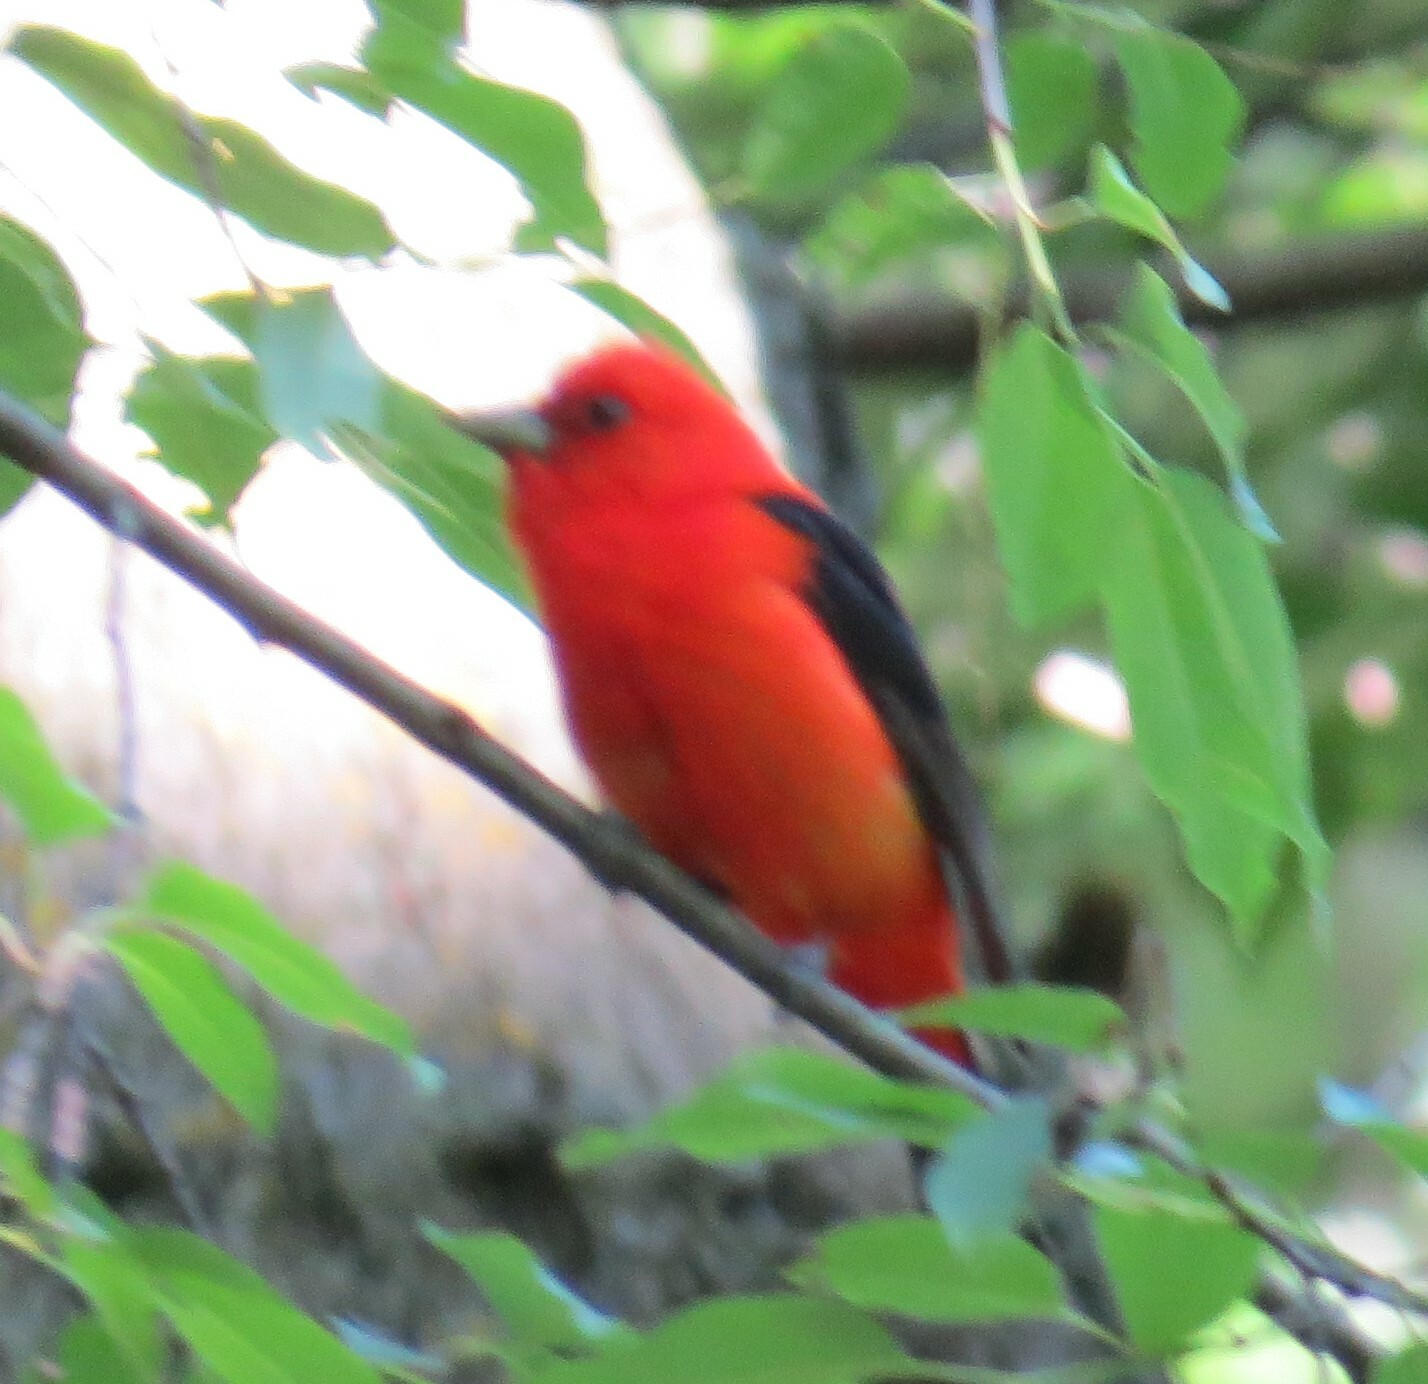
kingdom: Animalia
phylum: Chordata
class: Aves
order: Passeriformes
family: Cardinalidae
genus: Piranga
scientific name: Piranga olivacea
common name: Scarlet tanager
